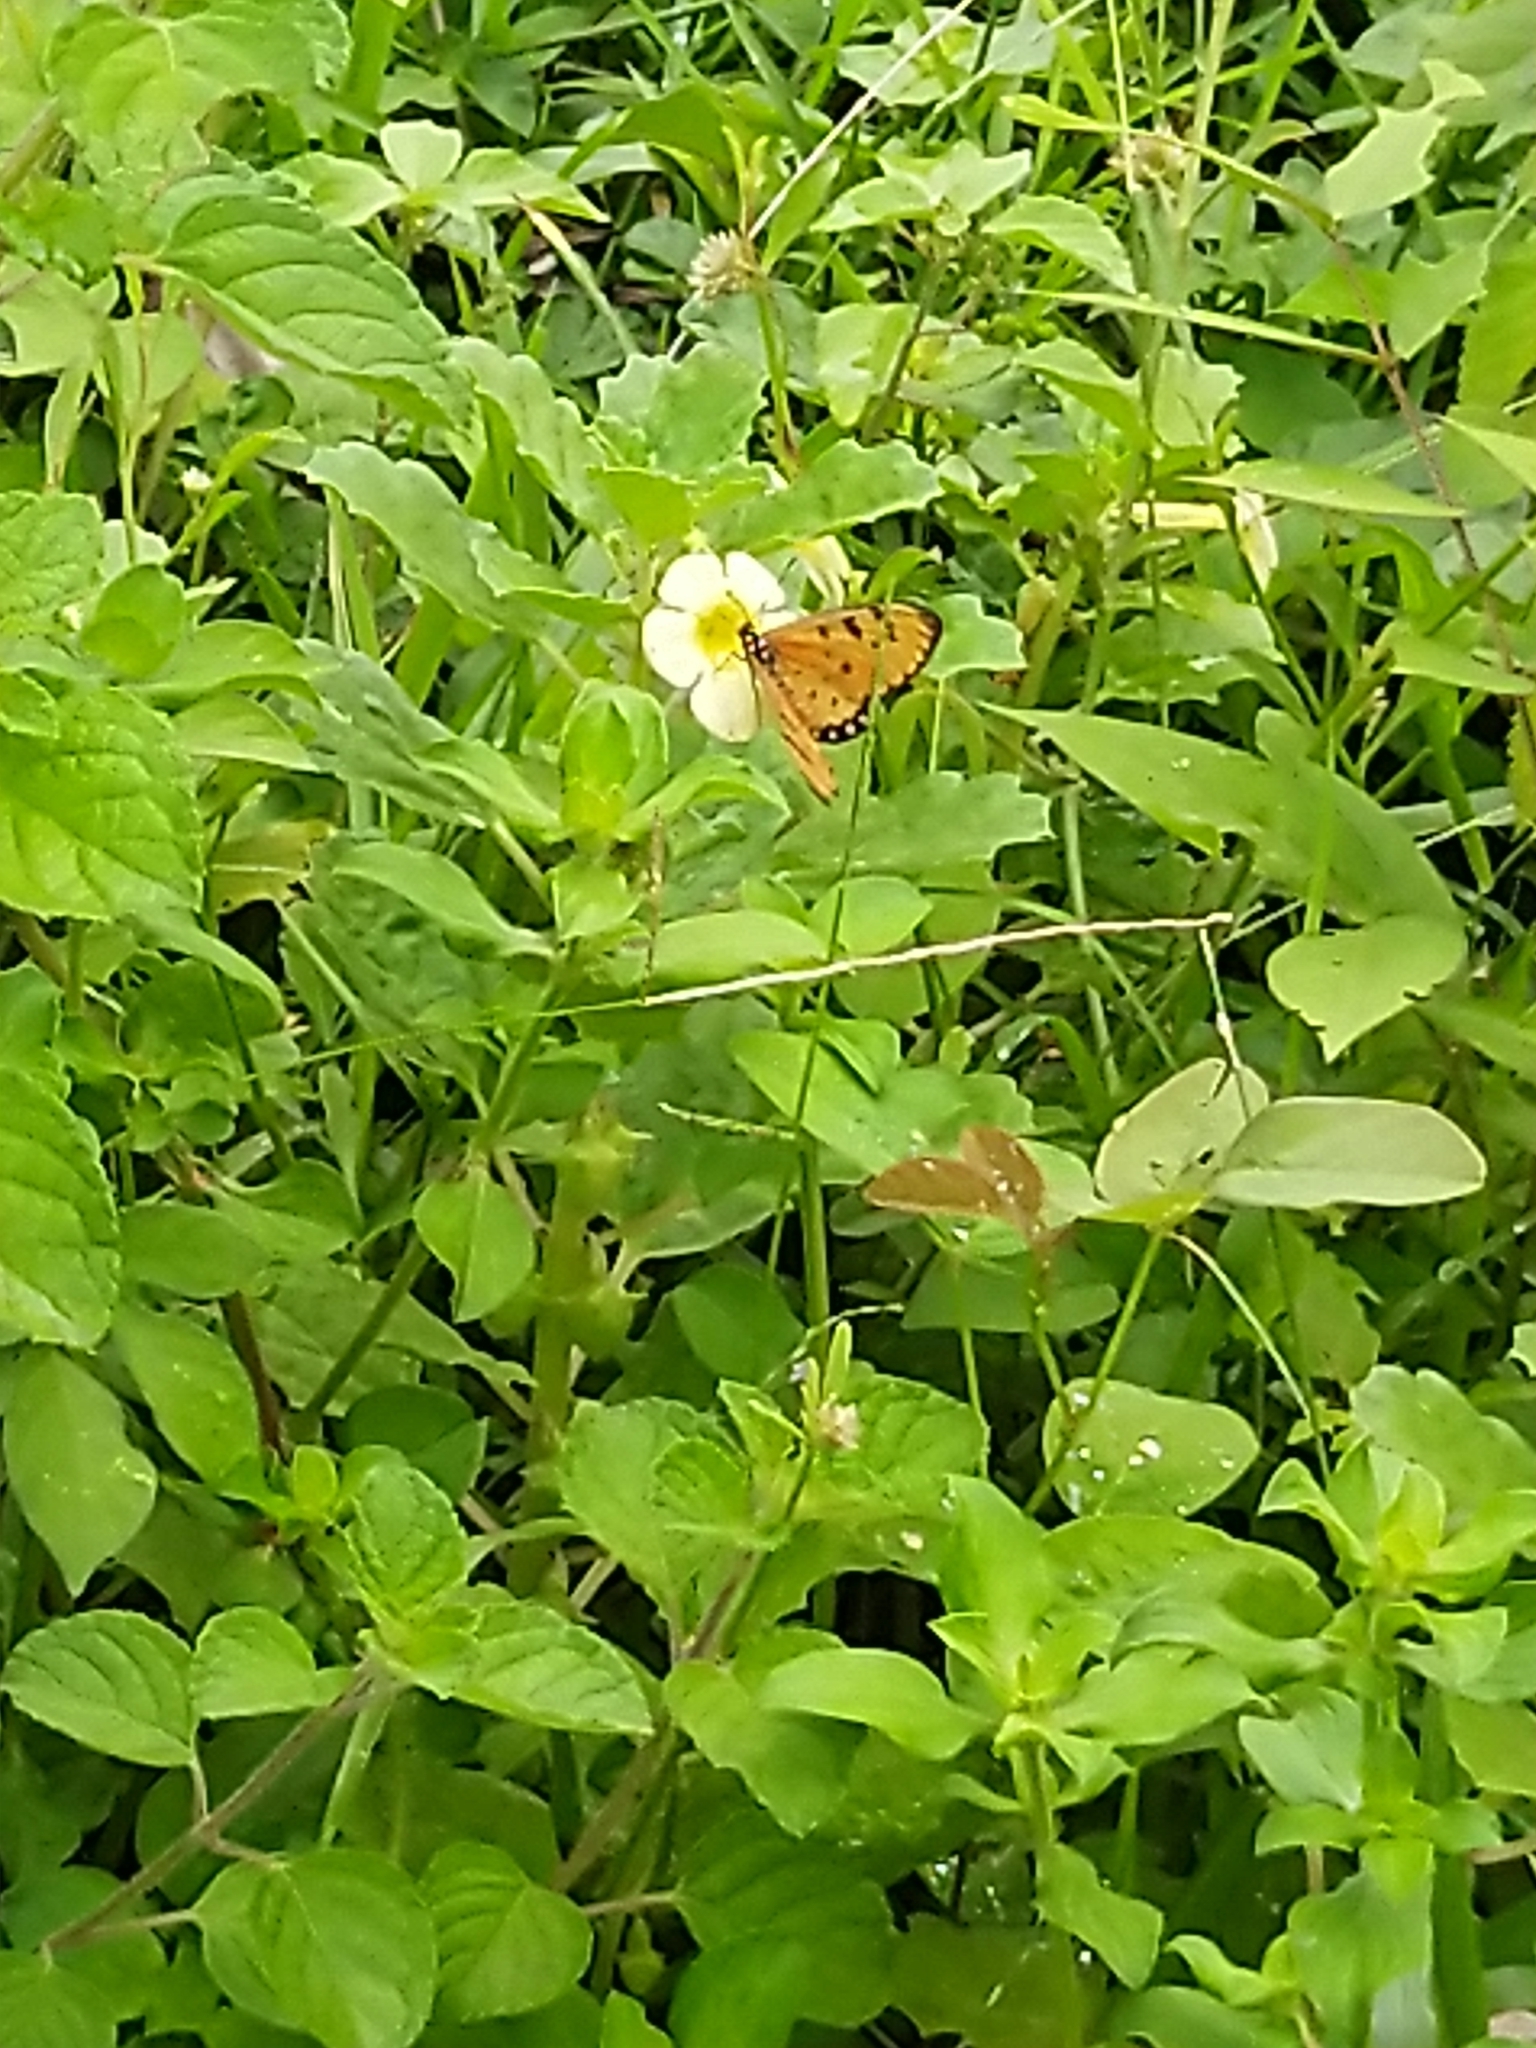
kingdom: Animalia
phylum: Arthropoda
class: Insecta
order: Lepidoptera
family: Nymphalidae
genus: Acraea
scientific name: Acraea terpsicore
